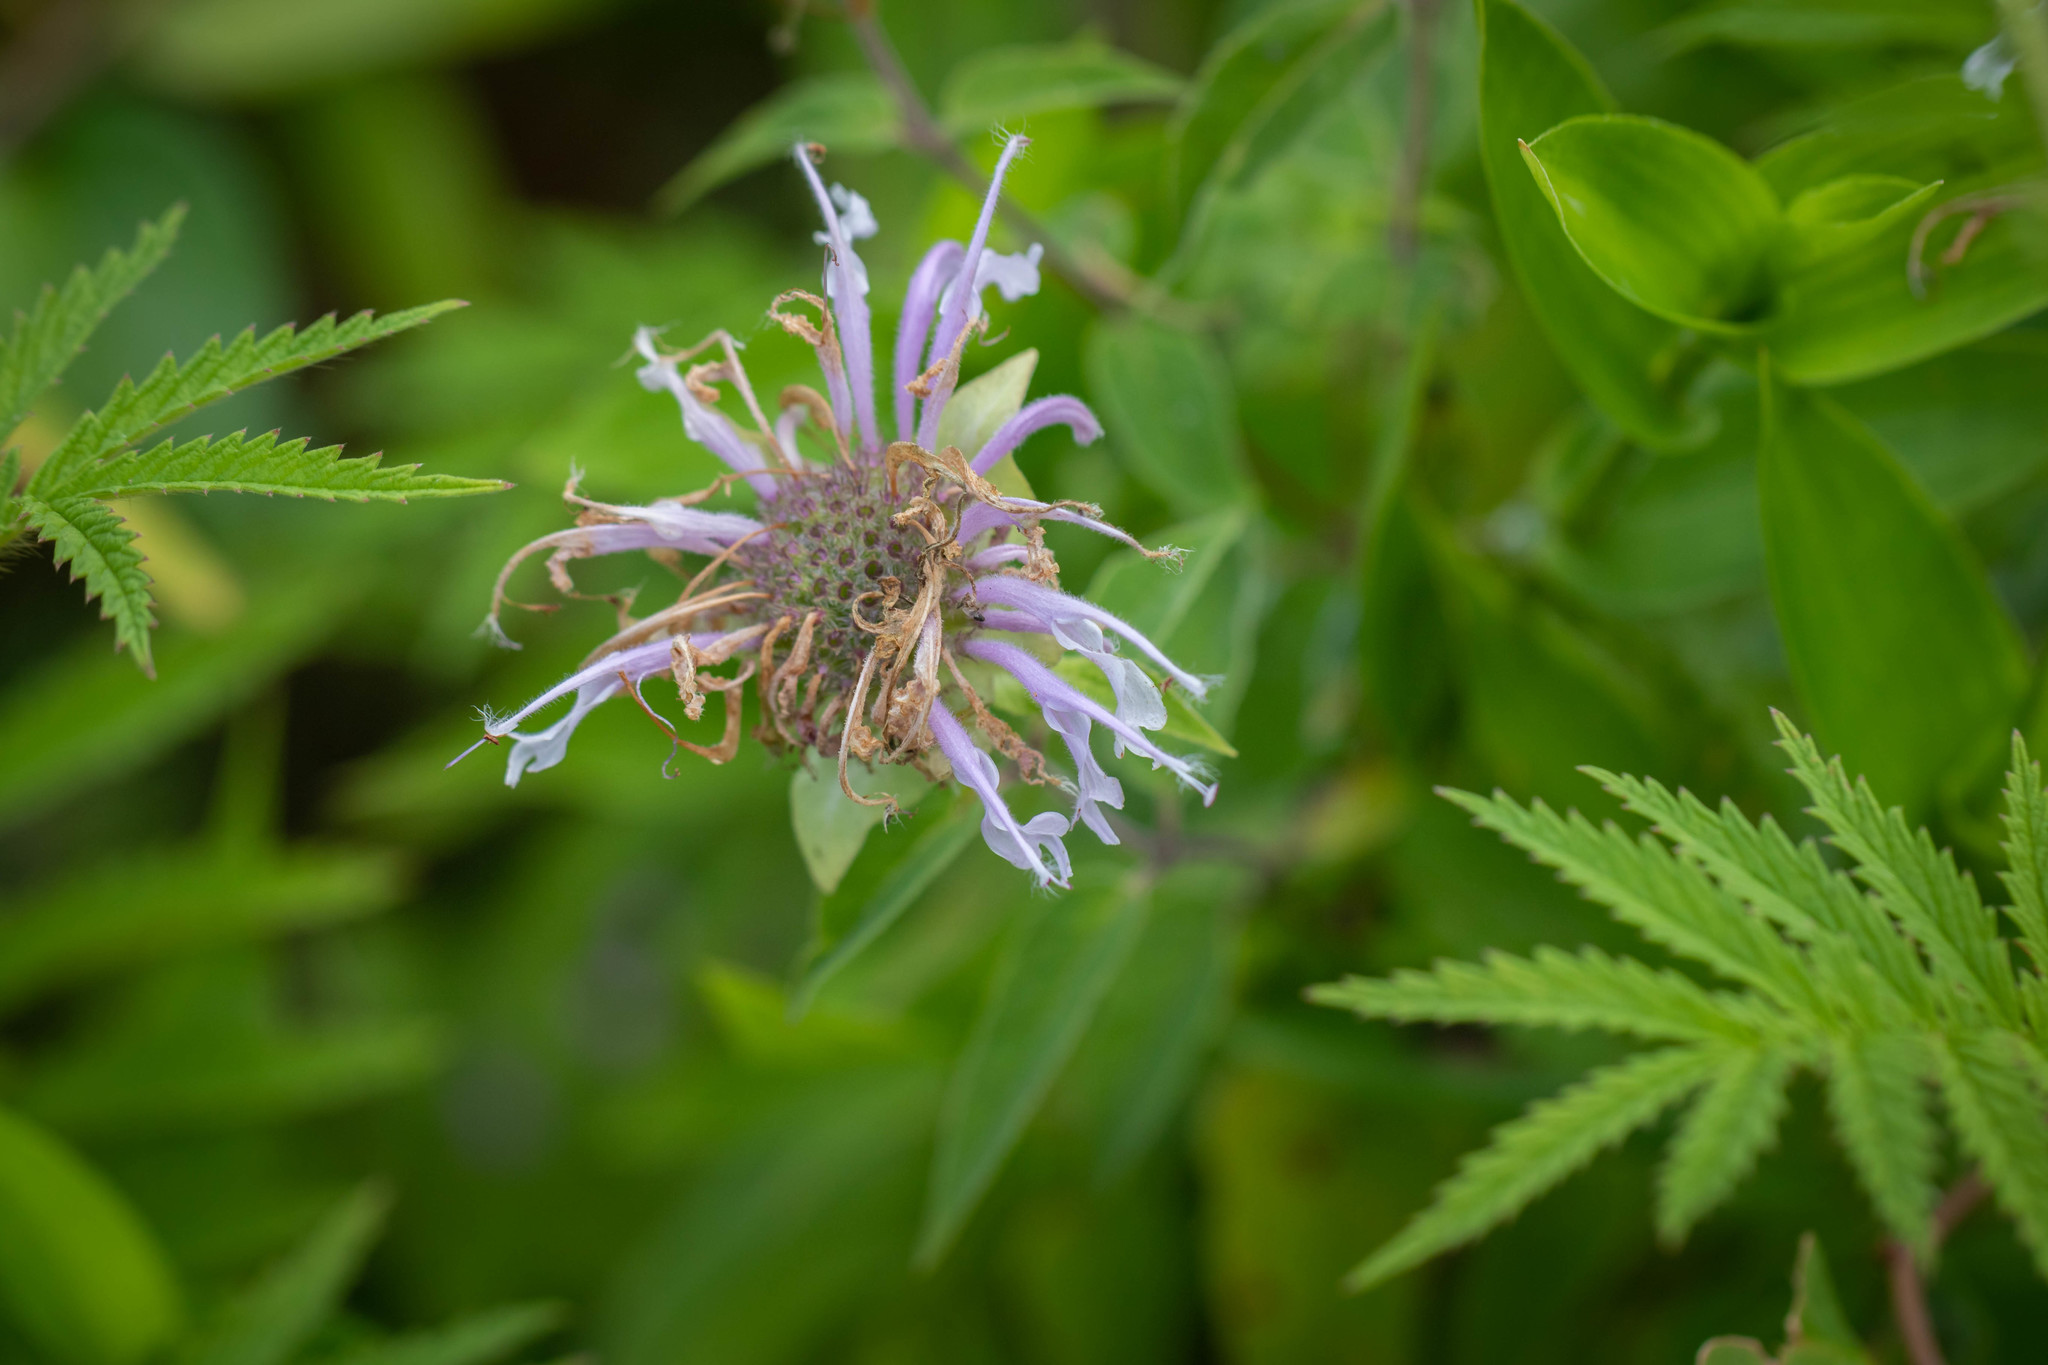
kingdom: Plantae
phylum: Tracheophyta
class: Magnoliopsida
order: Lamiales
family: Lamiaceae
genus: Monarda
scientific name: Monarda fistulosa
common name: Purple beebalm
